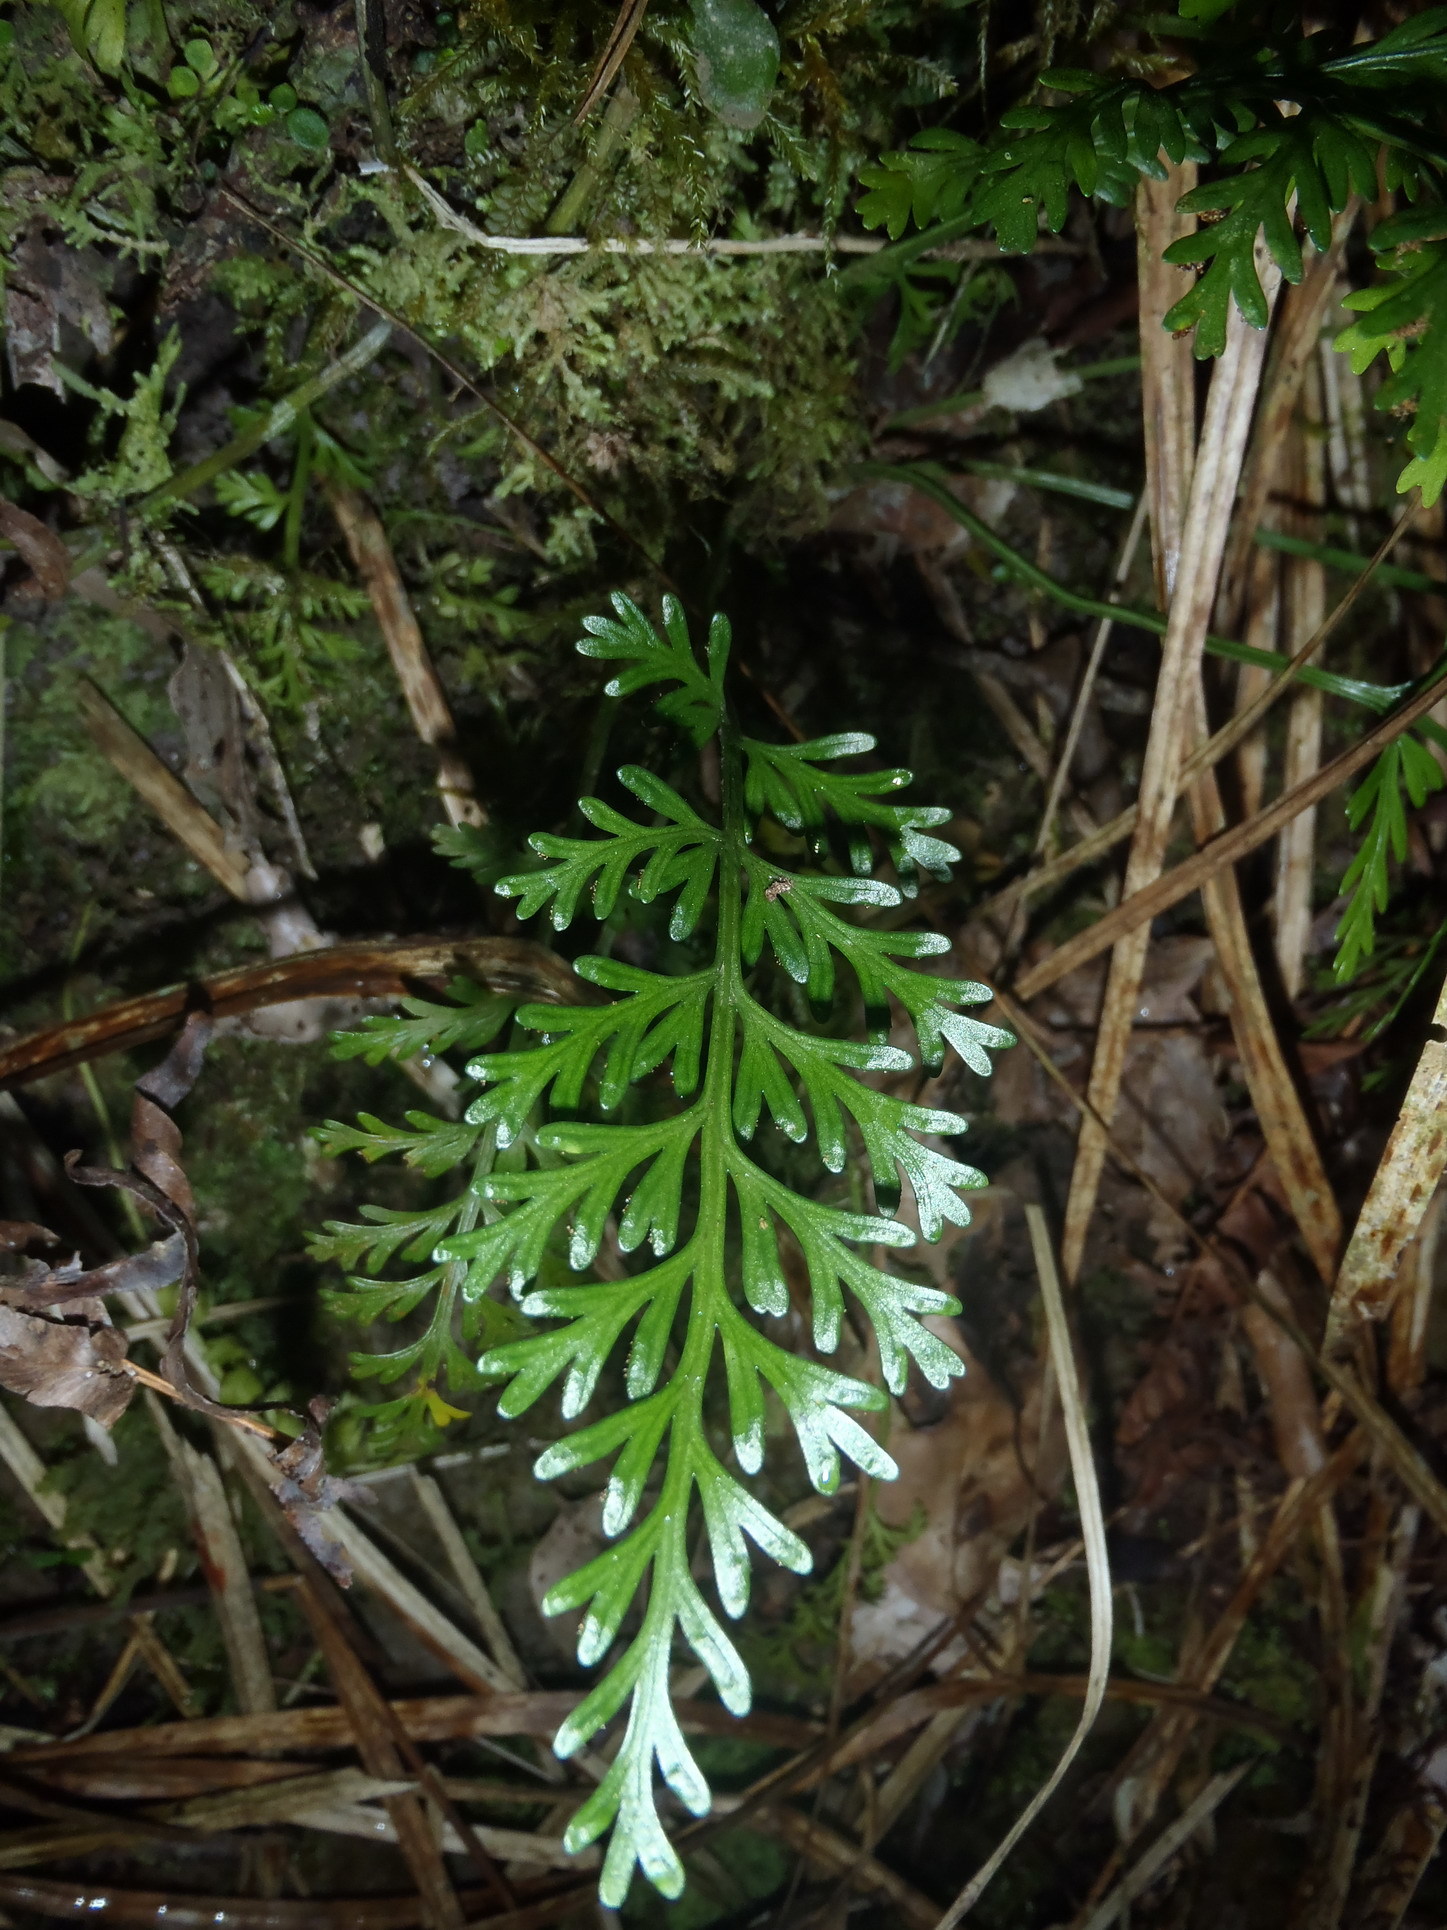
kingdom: Plantae
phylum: Tracheophyta
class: Polypodiopsida
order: Polypodiales
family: Aspleniaceae
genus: Asplenium
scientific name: Asplenium rutifolium
